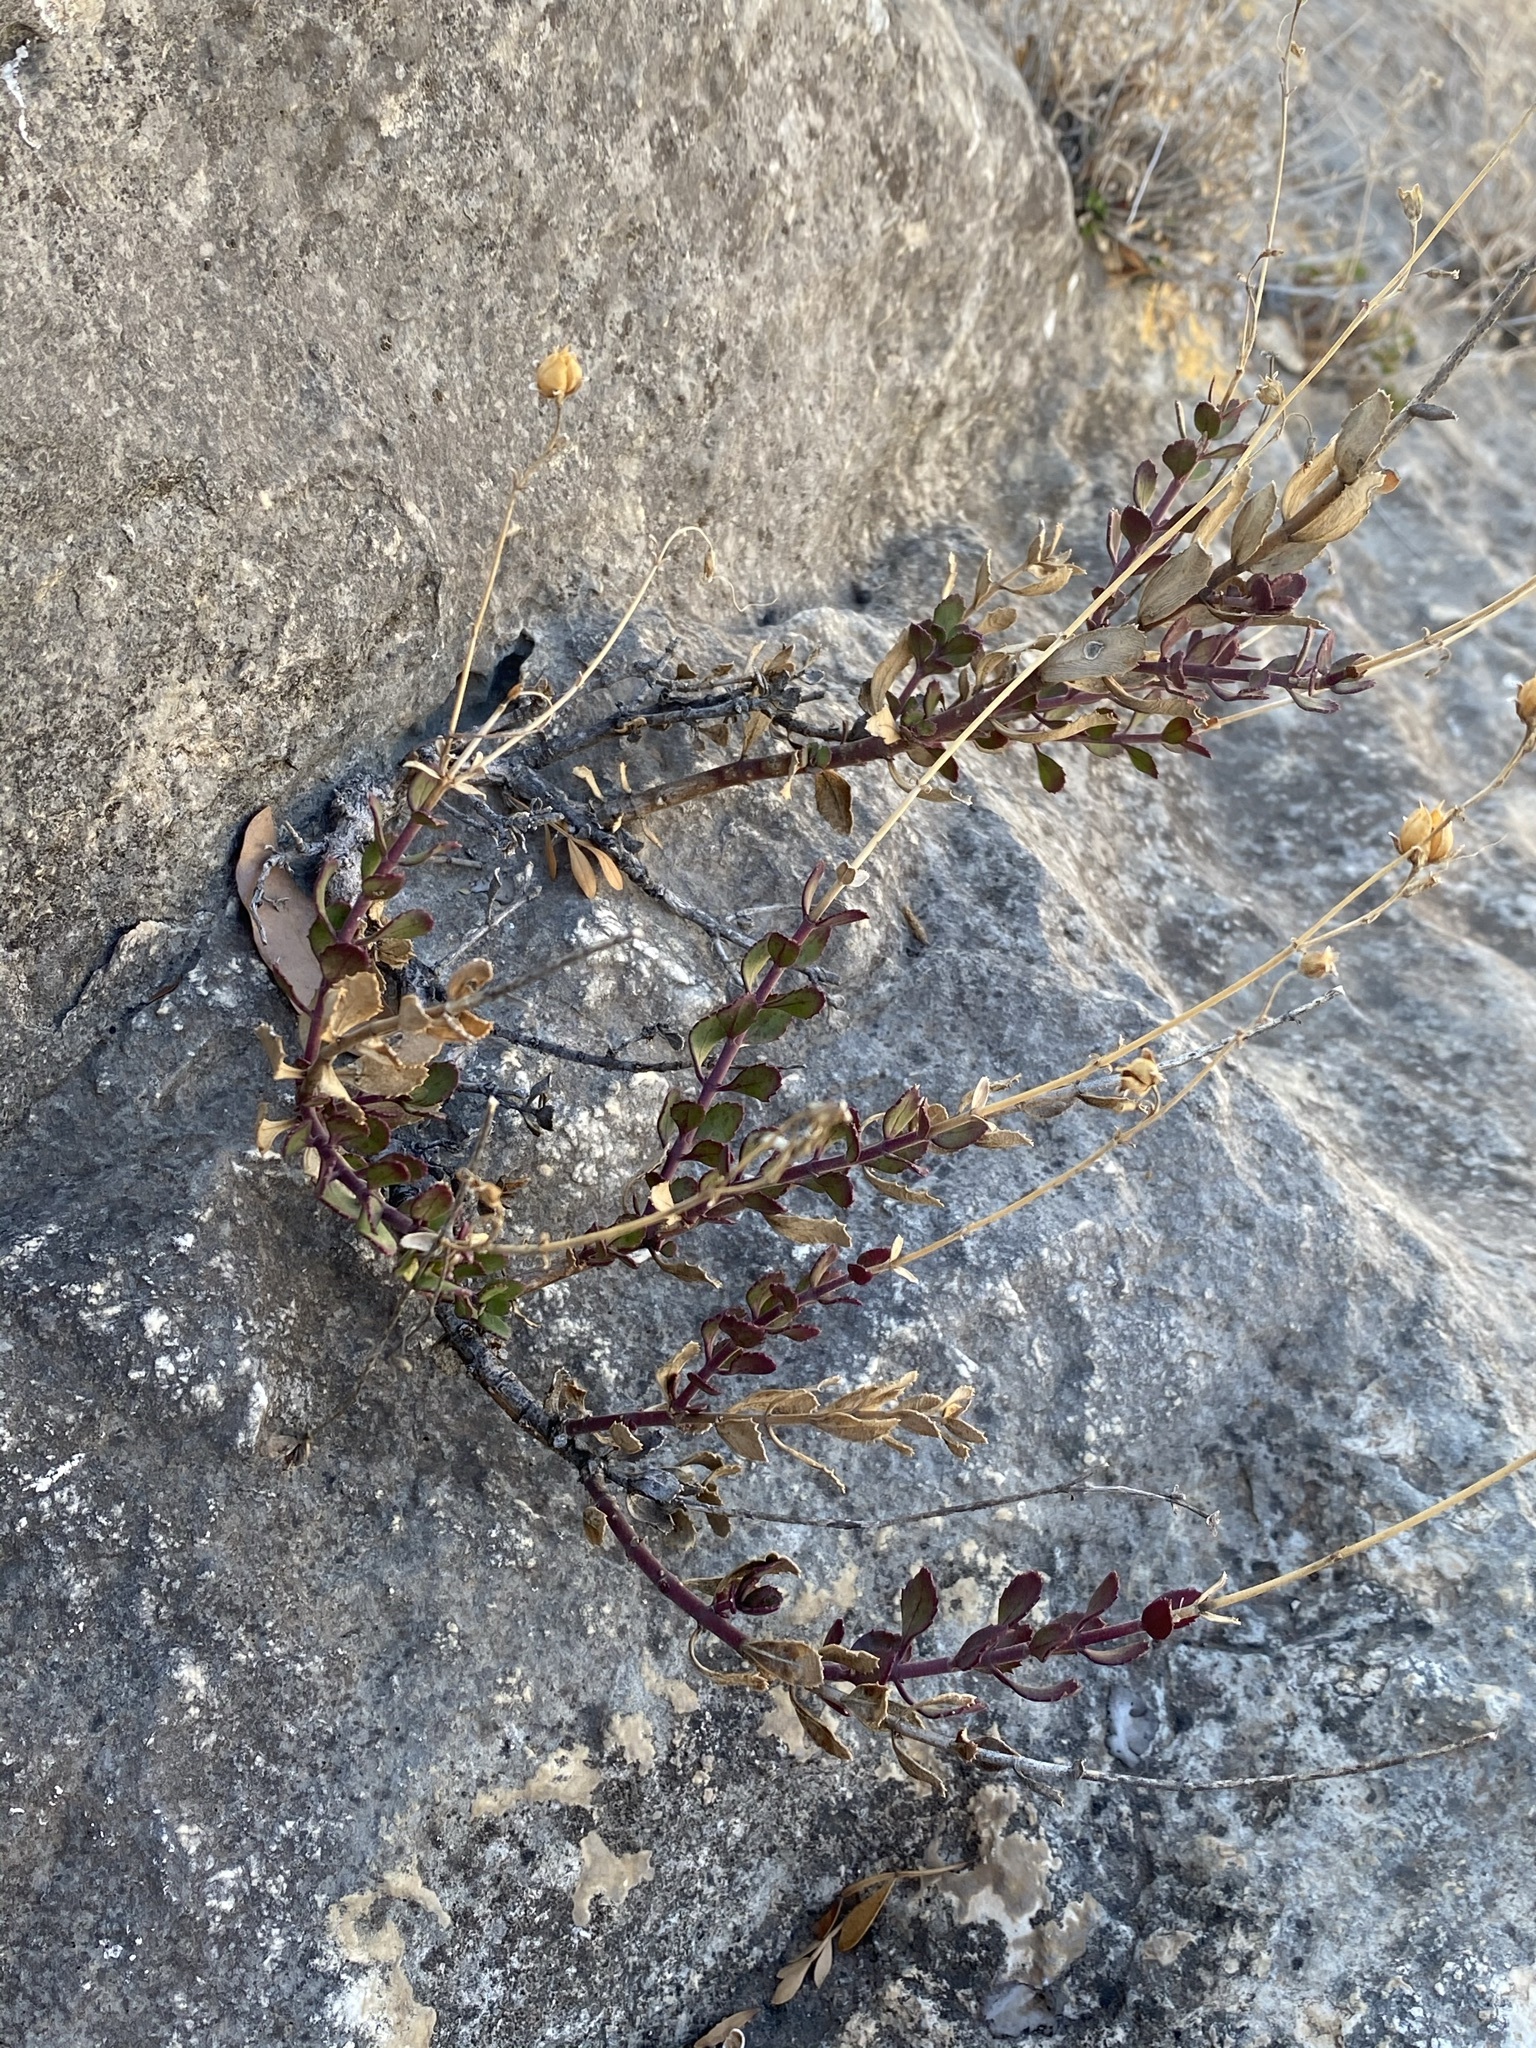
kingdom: Plantae
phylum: Tracheophyta
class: Magnoliopsida
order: Lamiales
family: Plantaginaceae
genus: Penstemon
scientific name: Penstemon baccharifolius
